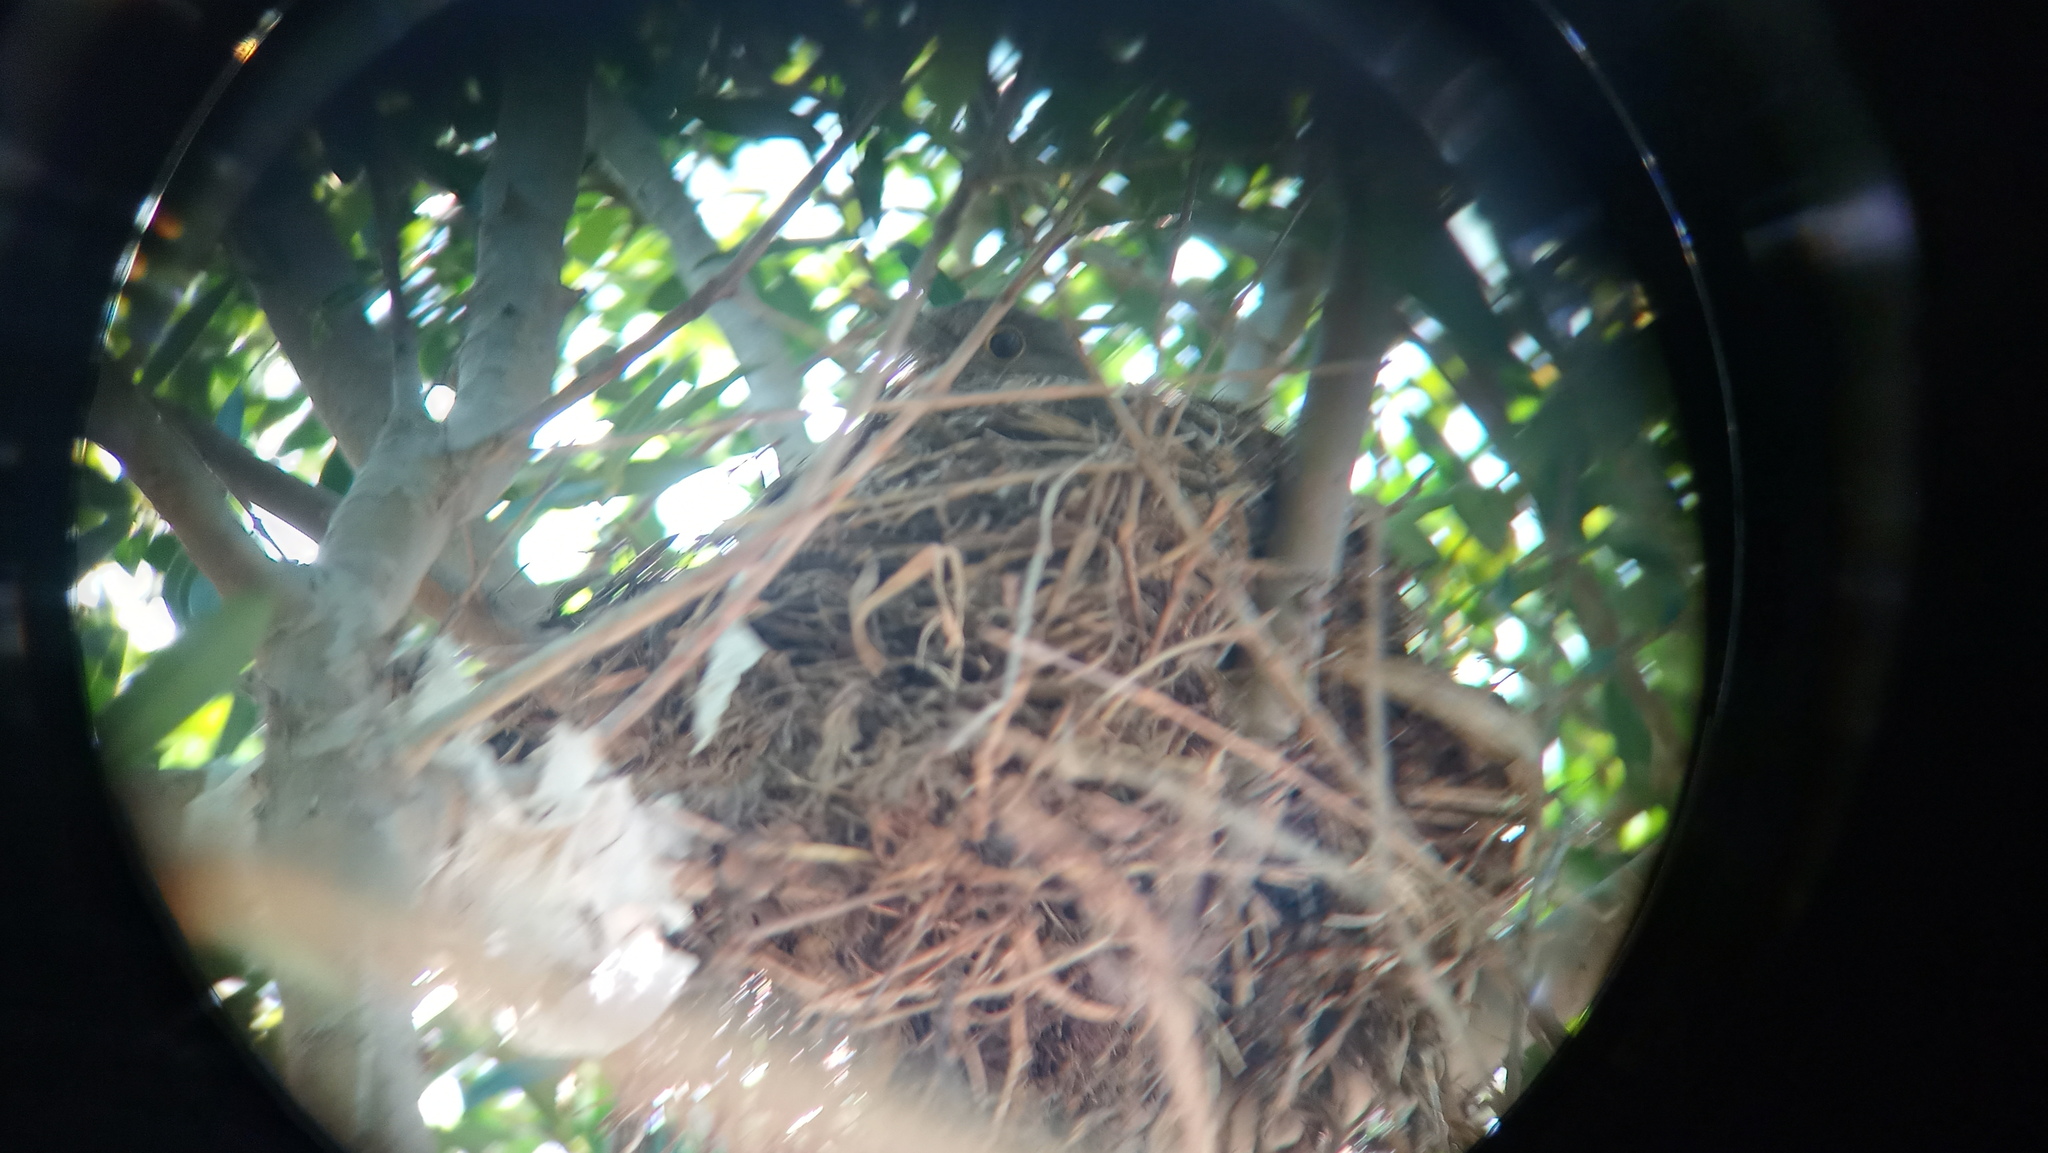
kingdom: Animalia
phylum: Chordata
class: Aves
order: Passeriformes
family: Turdidae
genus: Turdus
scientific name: Turdus rufiventris
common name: Rufous-bellied thrush
